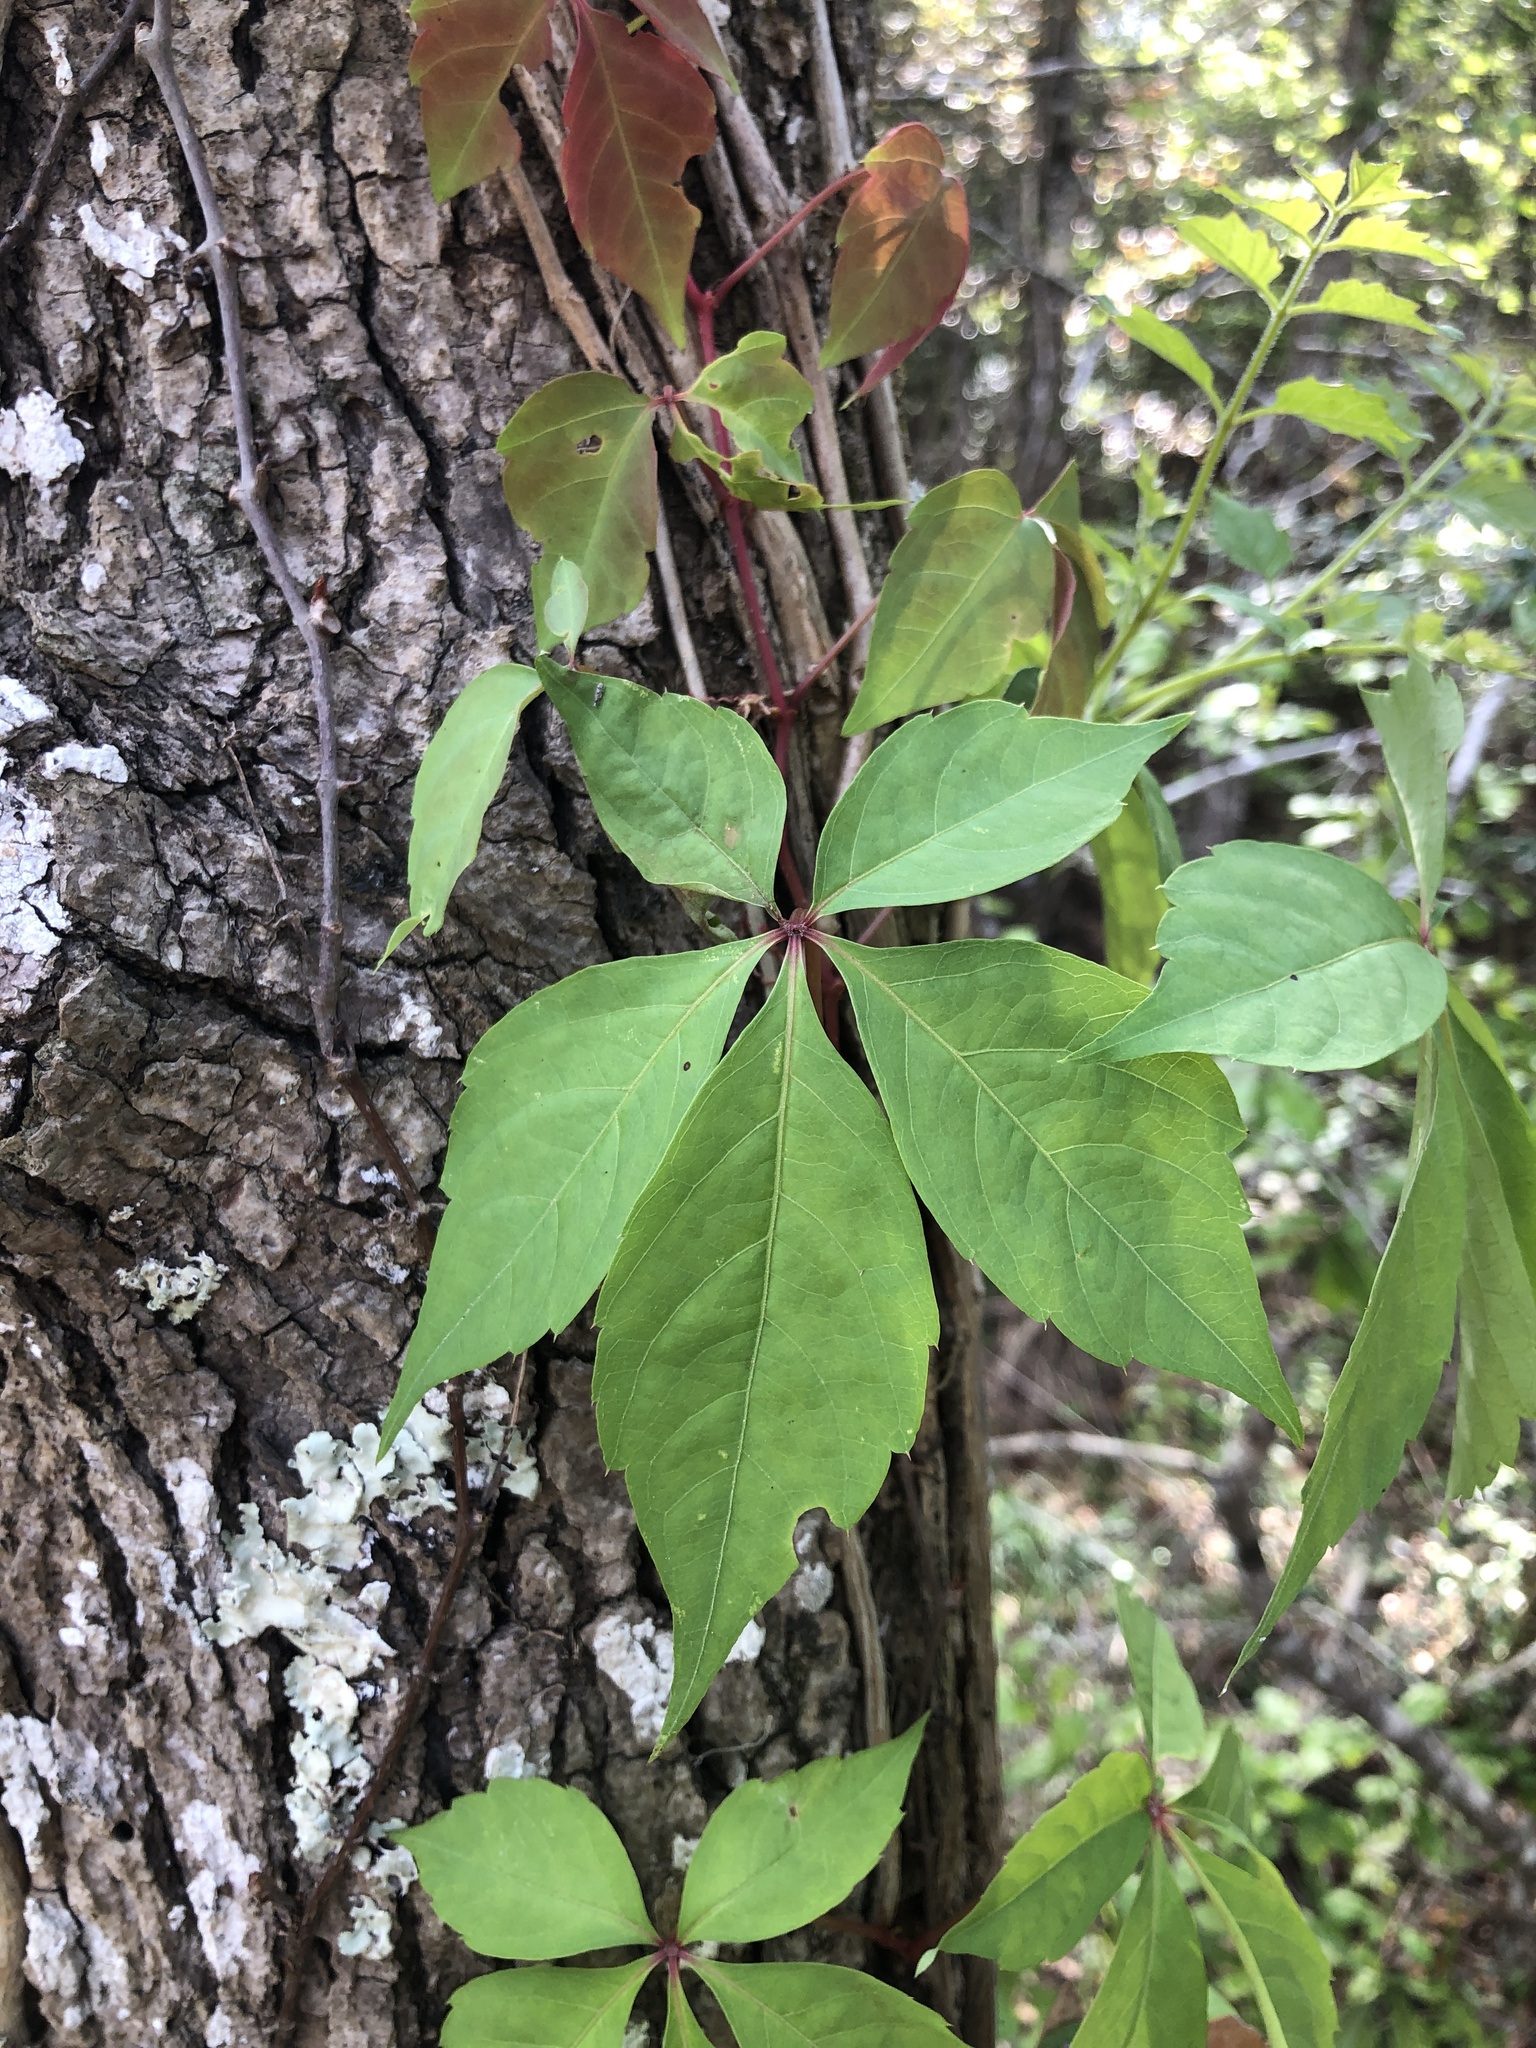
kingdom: Plantae
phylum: Tracheophyta
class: Magnoliopsida
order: Vitales
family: Vitaceae
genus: Parthenocissus
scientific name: Parthenocissus quinquefolia
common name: Virginia-creeper
